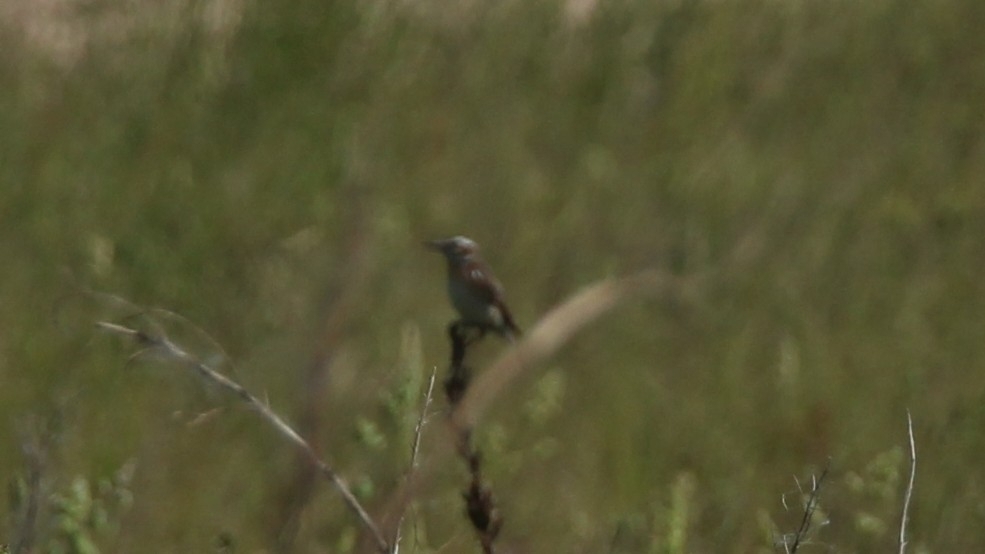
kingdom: Animalia
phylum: Chordata
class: Aves
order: Passeriformes
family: Muscicapidae
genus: Saxicola
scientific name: Saxicola rubetra
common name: Whinchat
